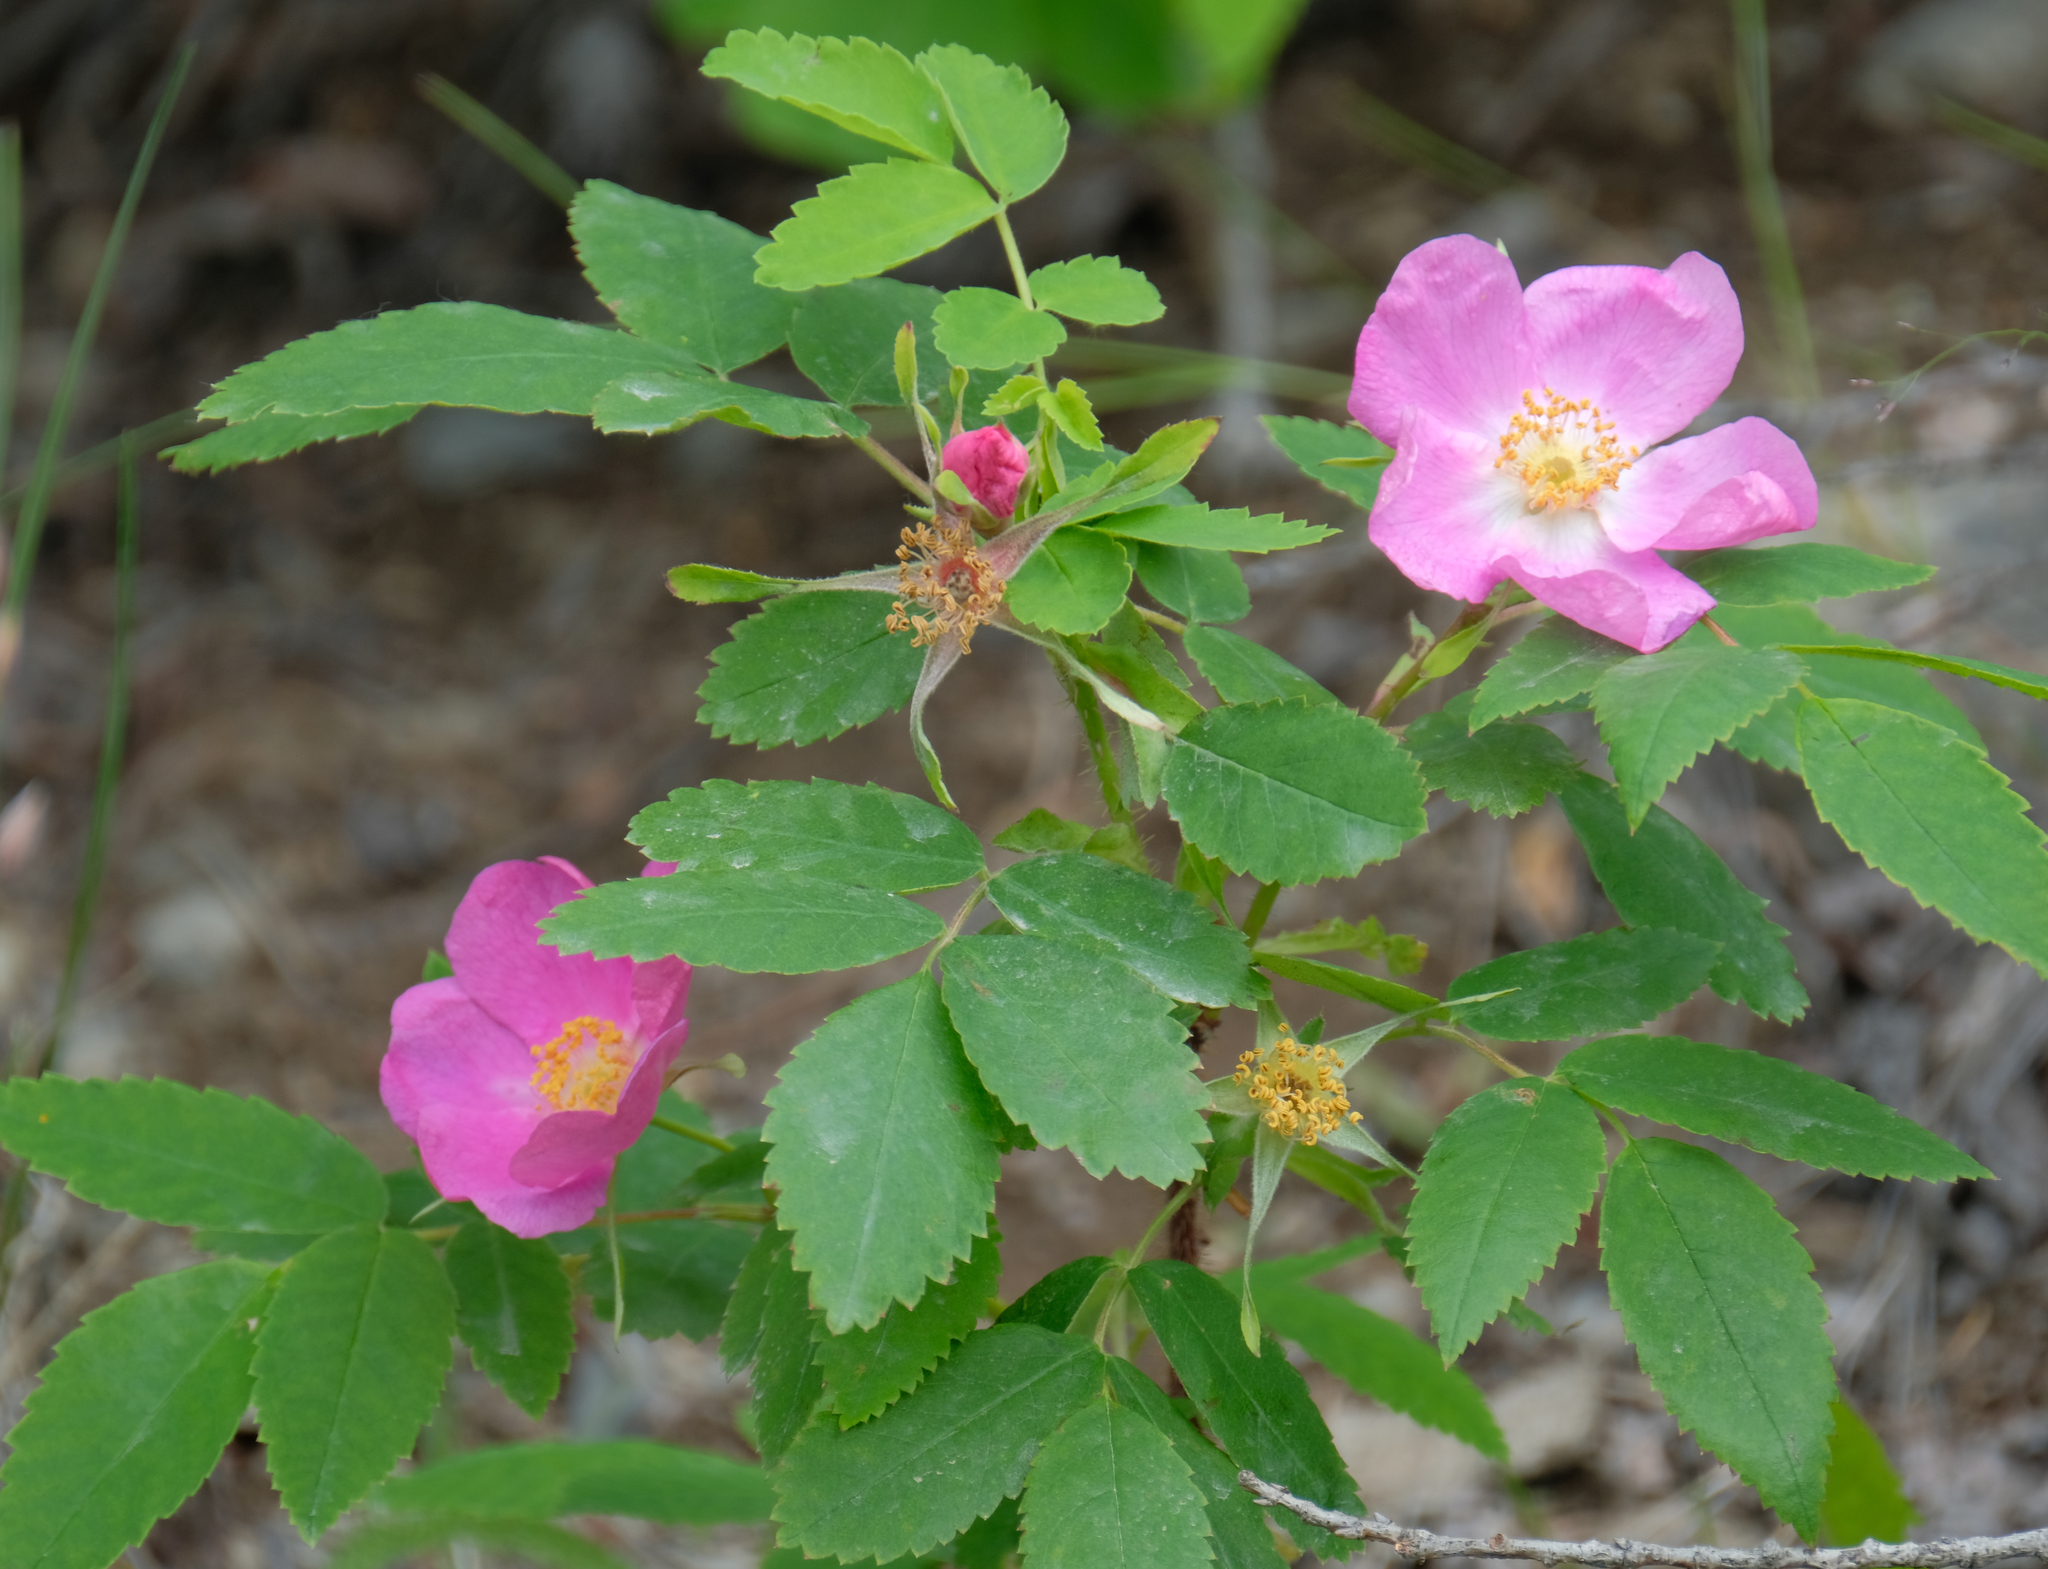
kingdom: Plantae
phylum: Tracheophyta
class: Magnoliopsida
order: Rosales
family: Rosaceae
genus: Rosa
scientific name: Rosa acicularis
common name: Prickly rose
